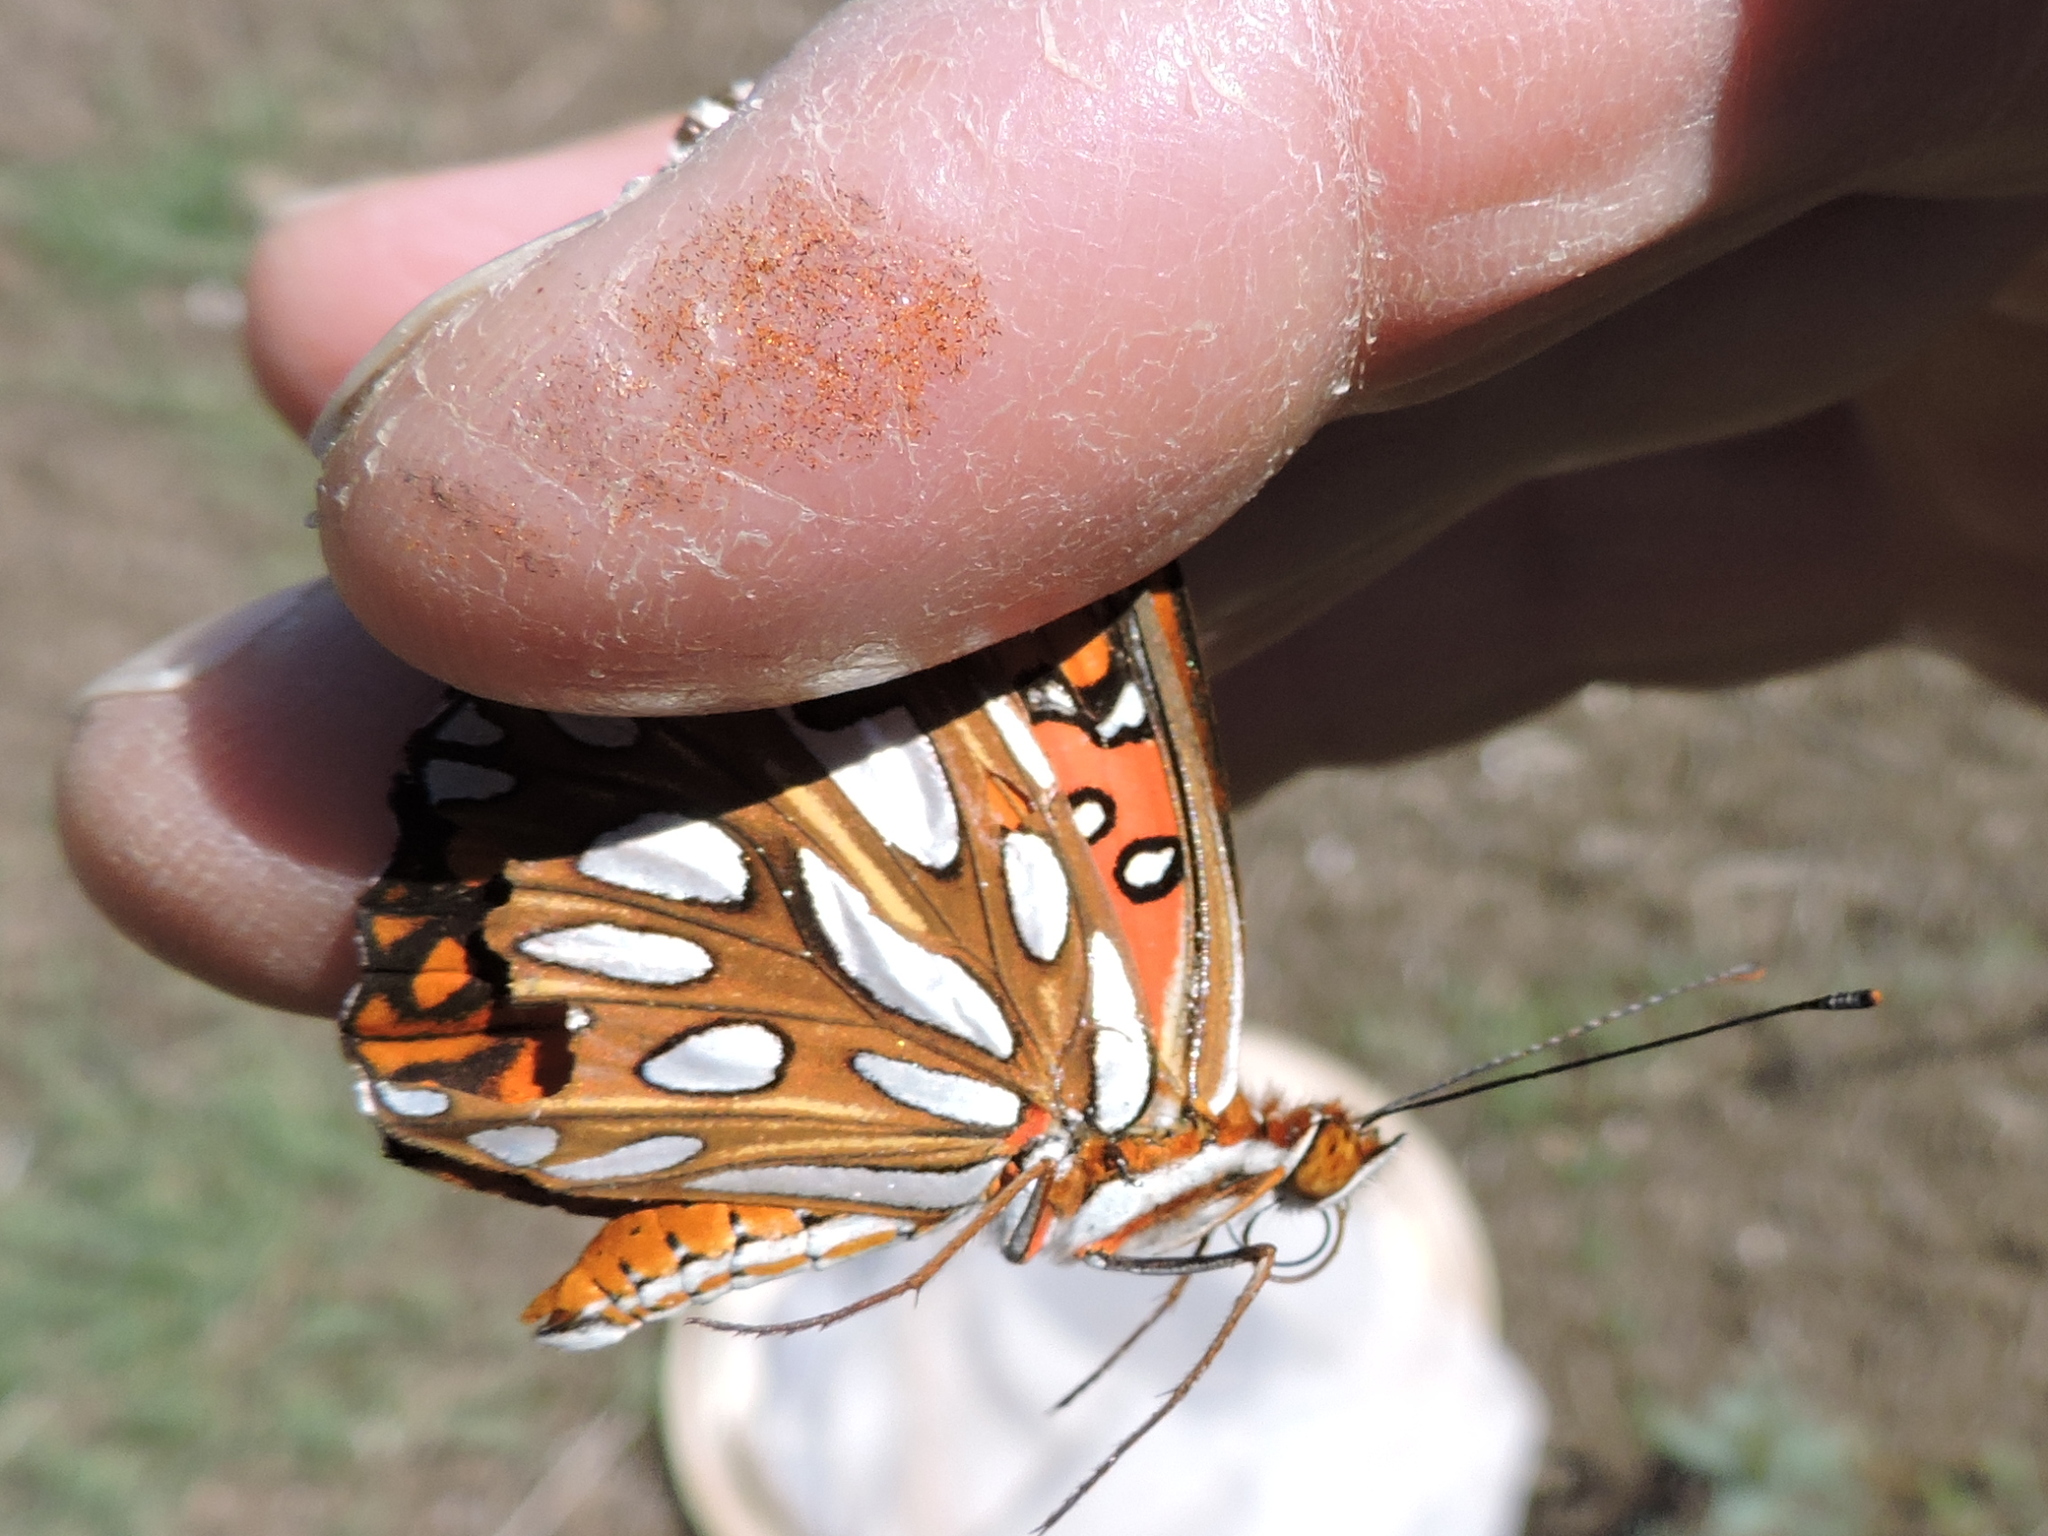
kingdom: Animalia
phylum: Arthropoda
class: Insecta
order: Lepidoptera
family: Nymphalidae
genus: Dione
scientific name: Dione vanillae
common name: Gulf fritillary
